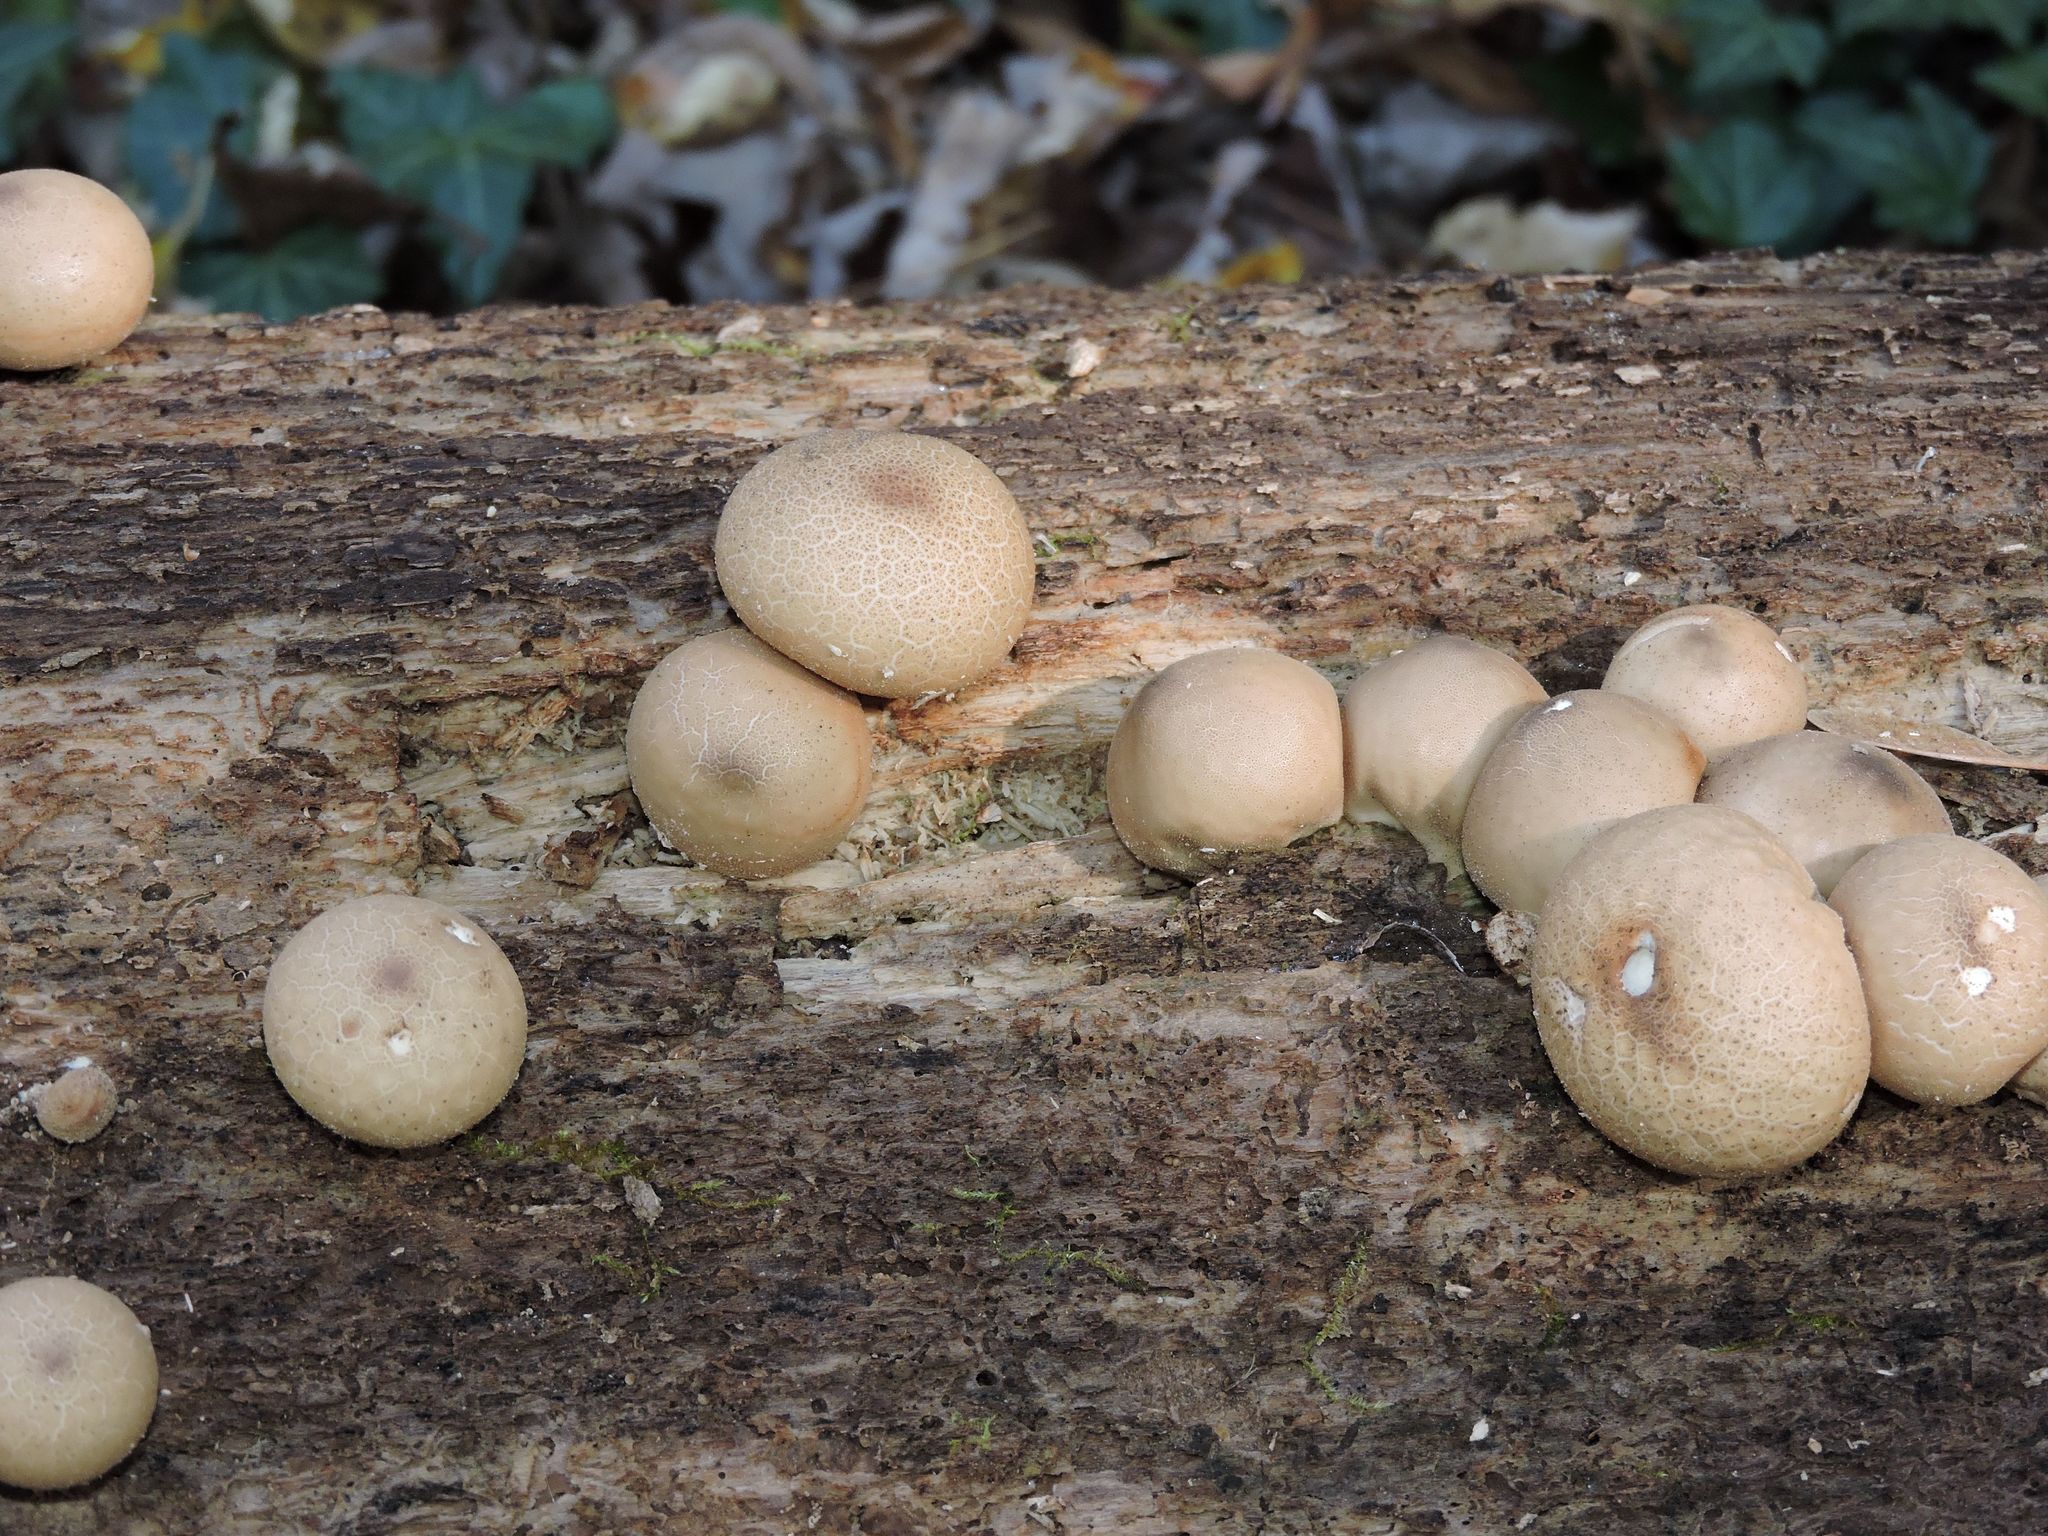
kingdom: Fungi
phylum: Basidiomycota
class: Agaricomycetes
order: Agaricales
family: Lycoperdaceae
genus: Apioperdon
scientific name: Apioperdon pyriforme
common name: Pear-shaped puffball
